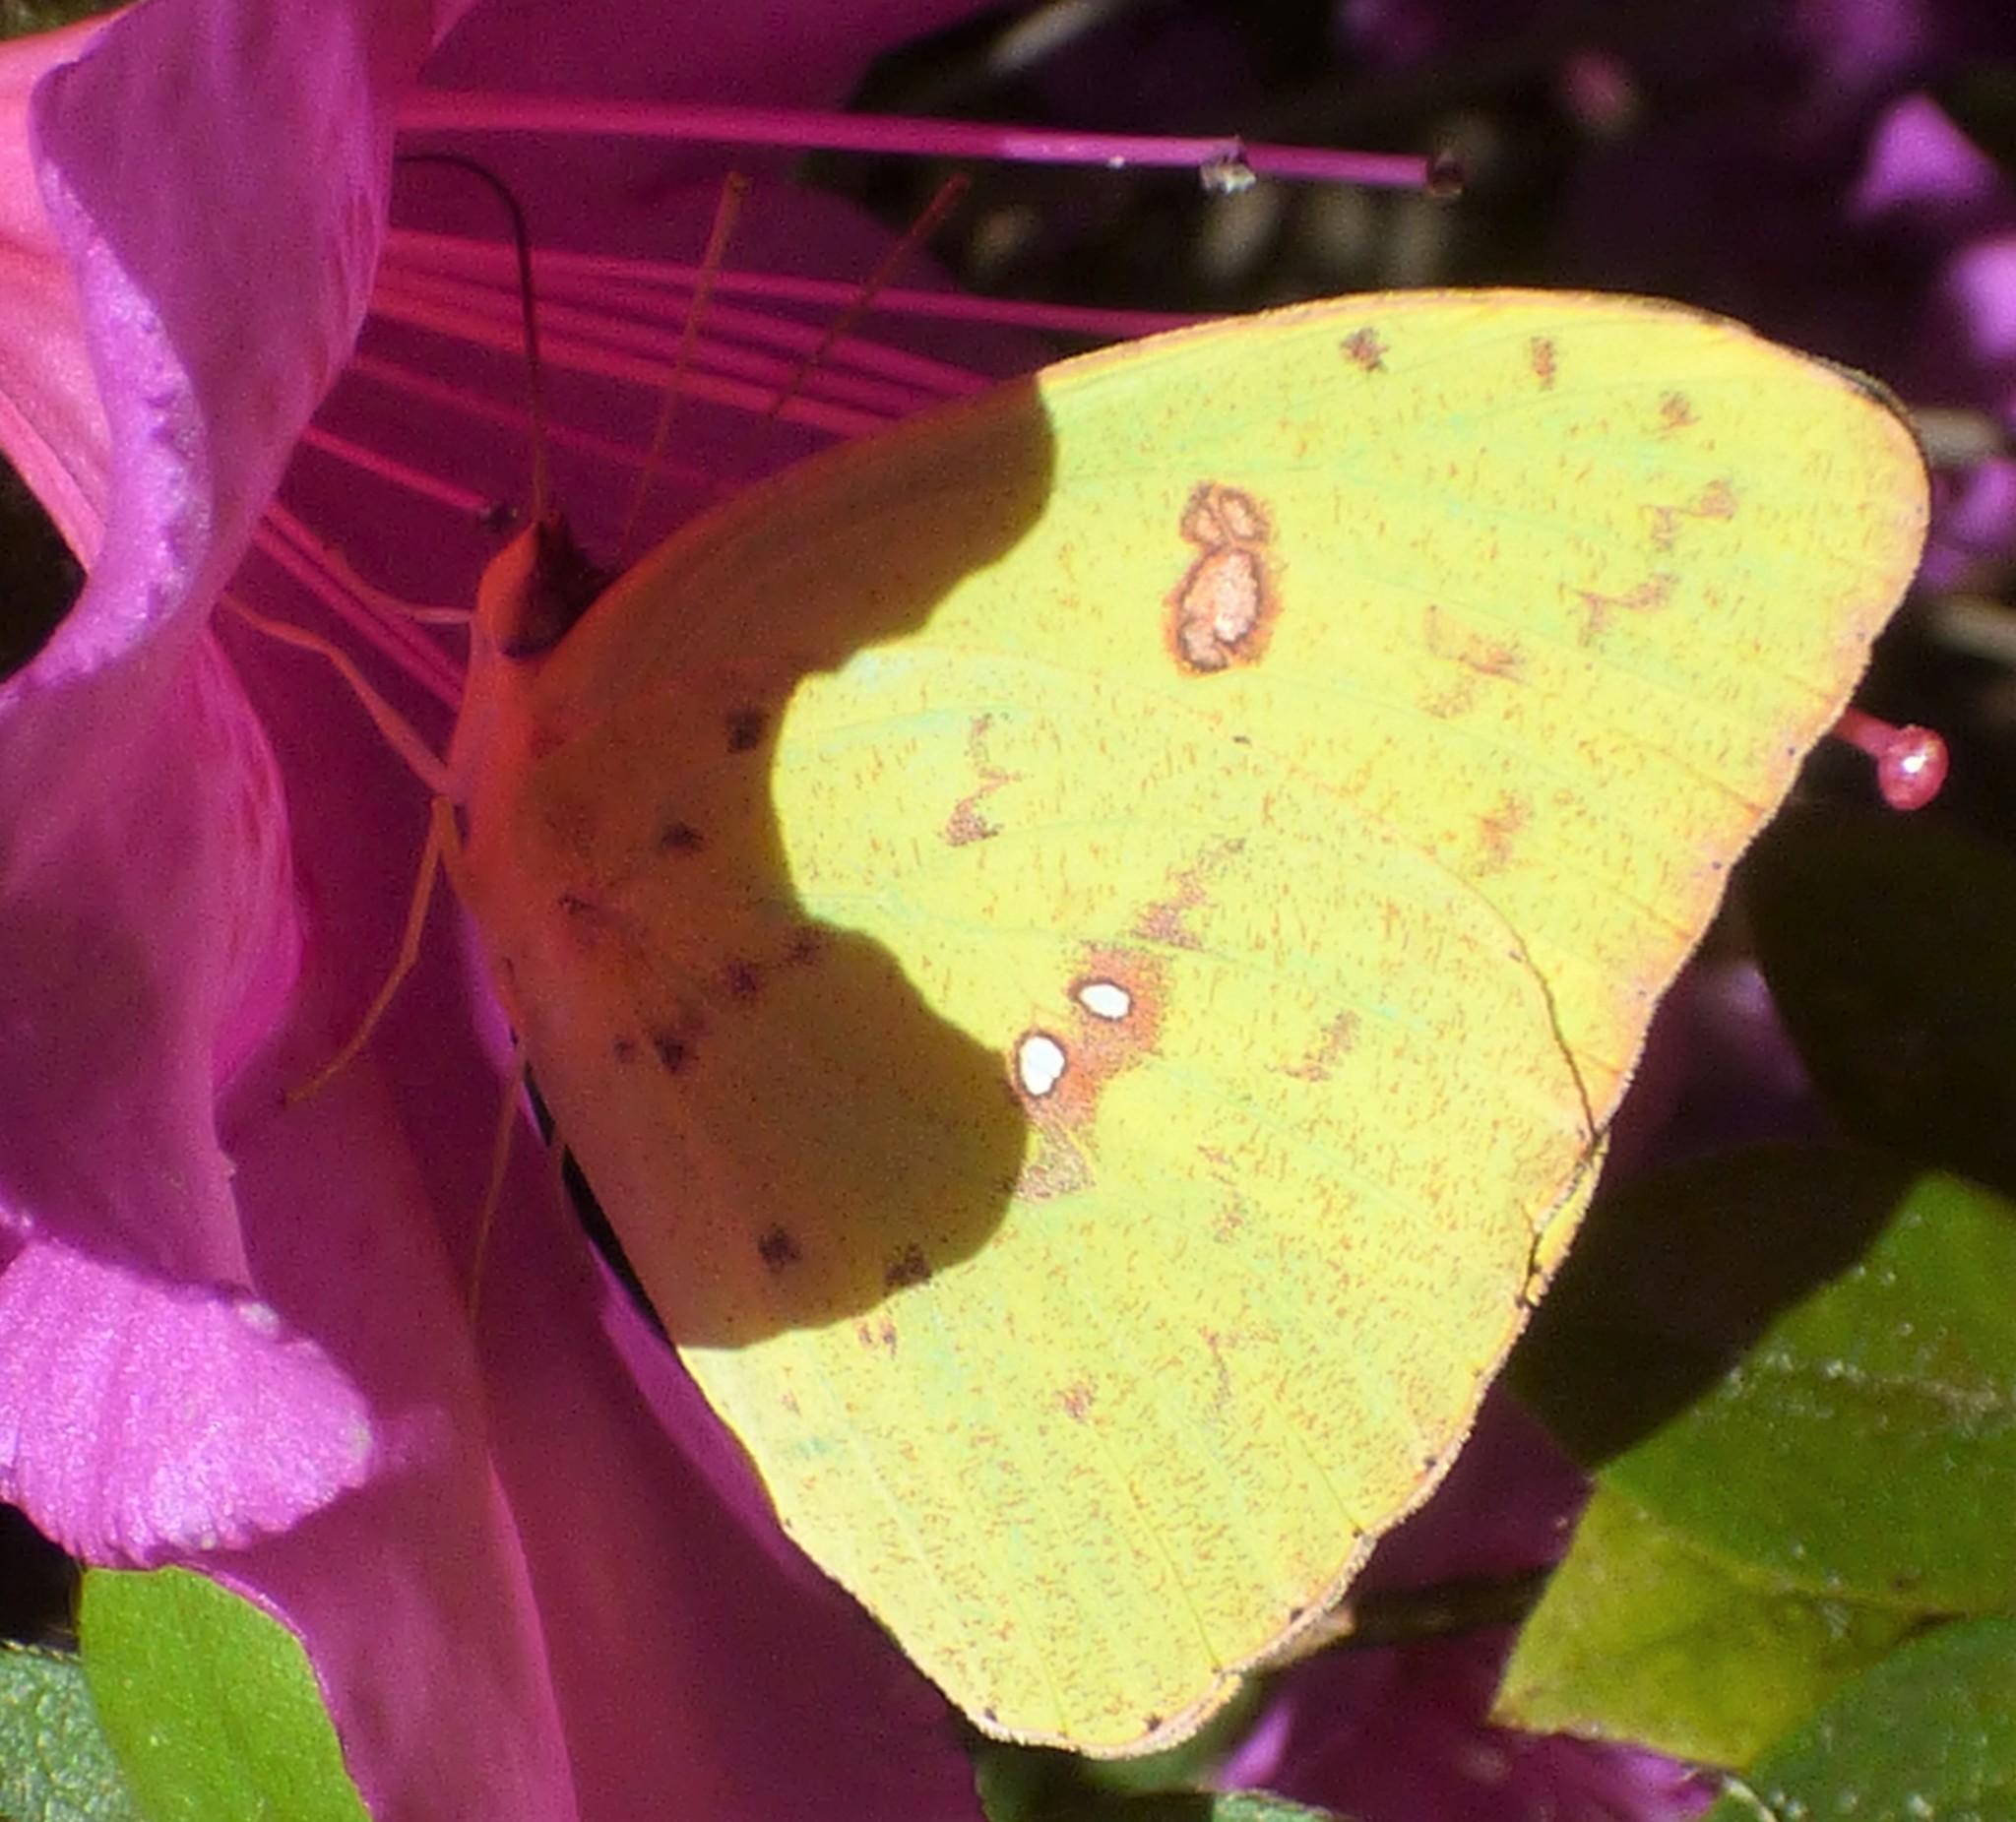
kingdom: Animalia
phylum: Arthropoda
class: Insecta
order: Lepidoptera
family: Pieridae
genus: Phoebis
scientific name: Phoebis sennae
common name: Cloudless sulphur
